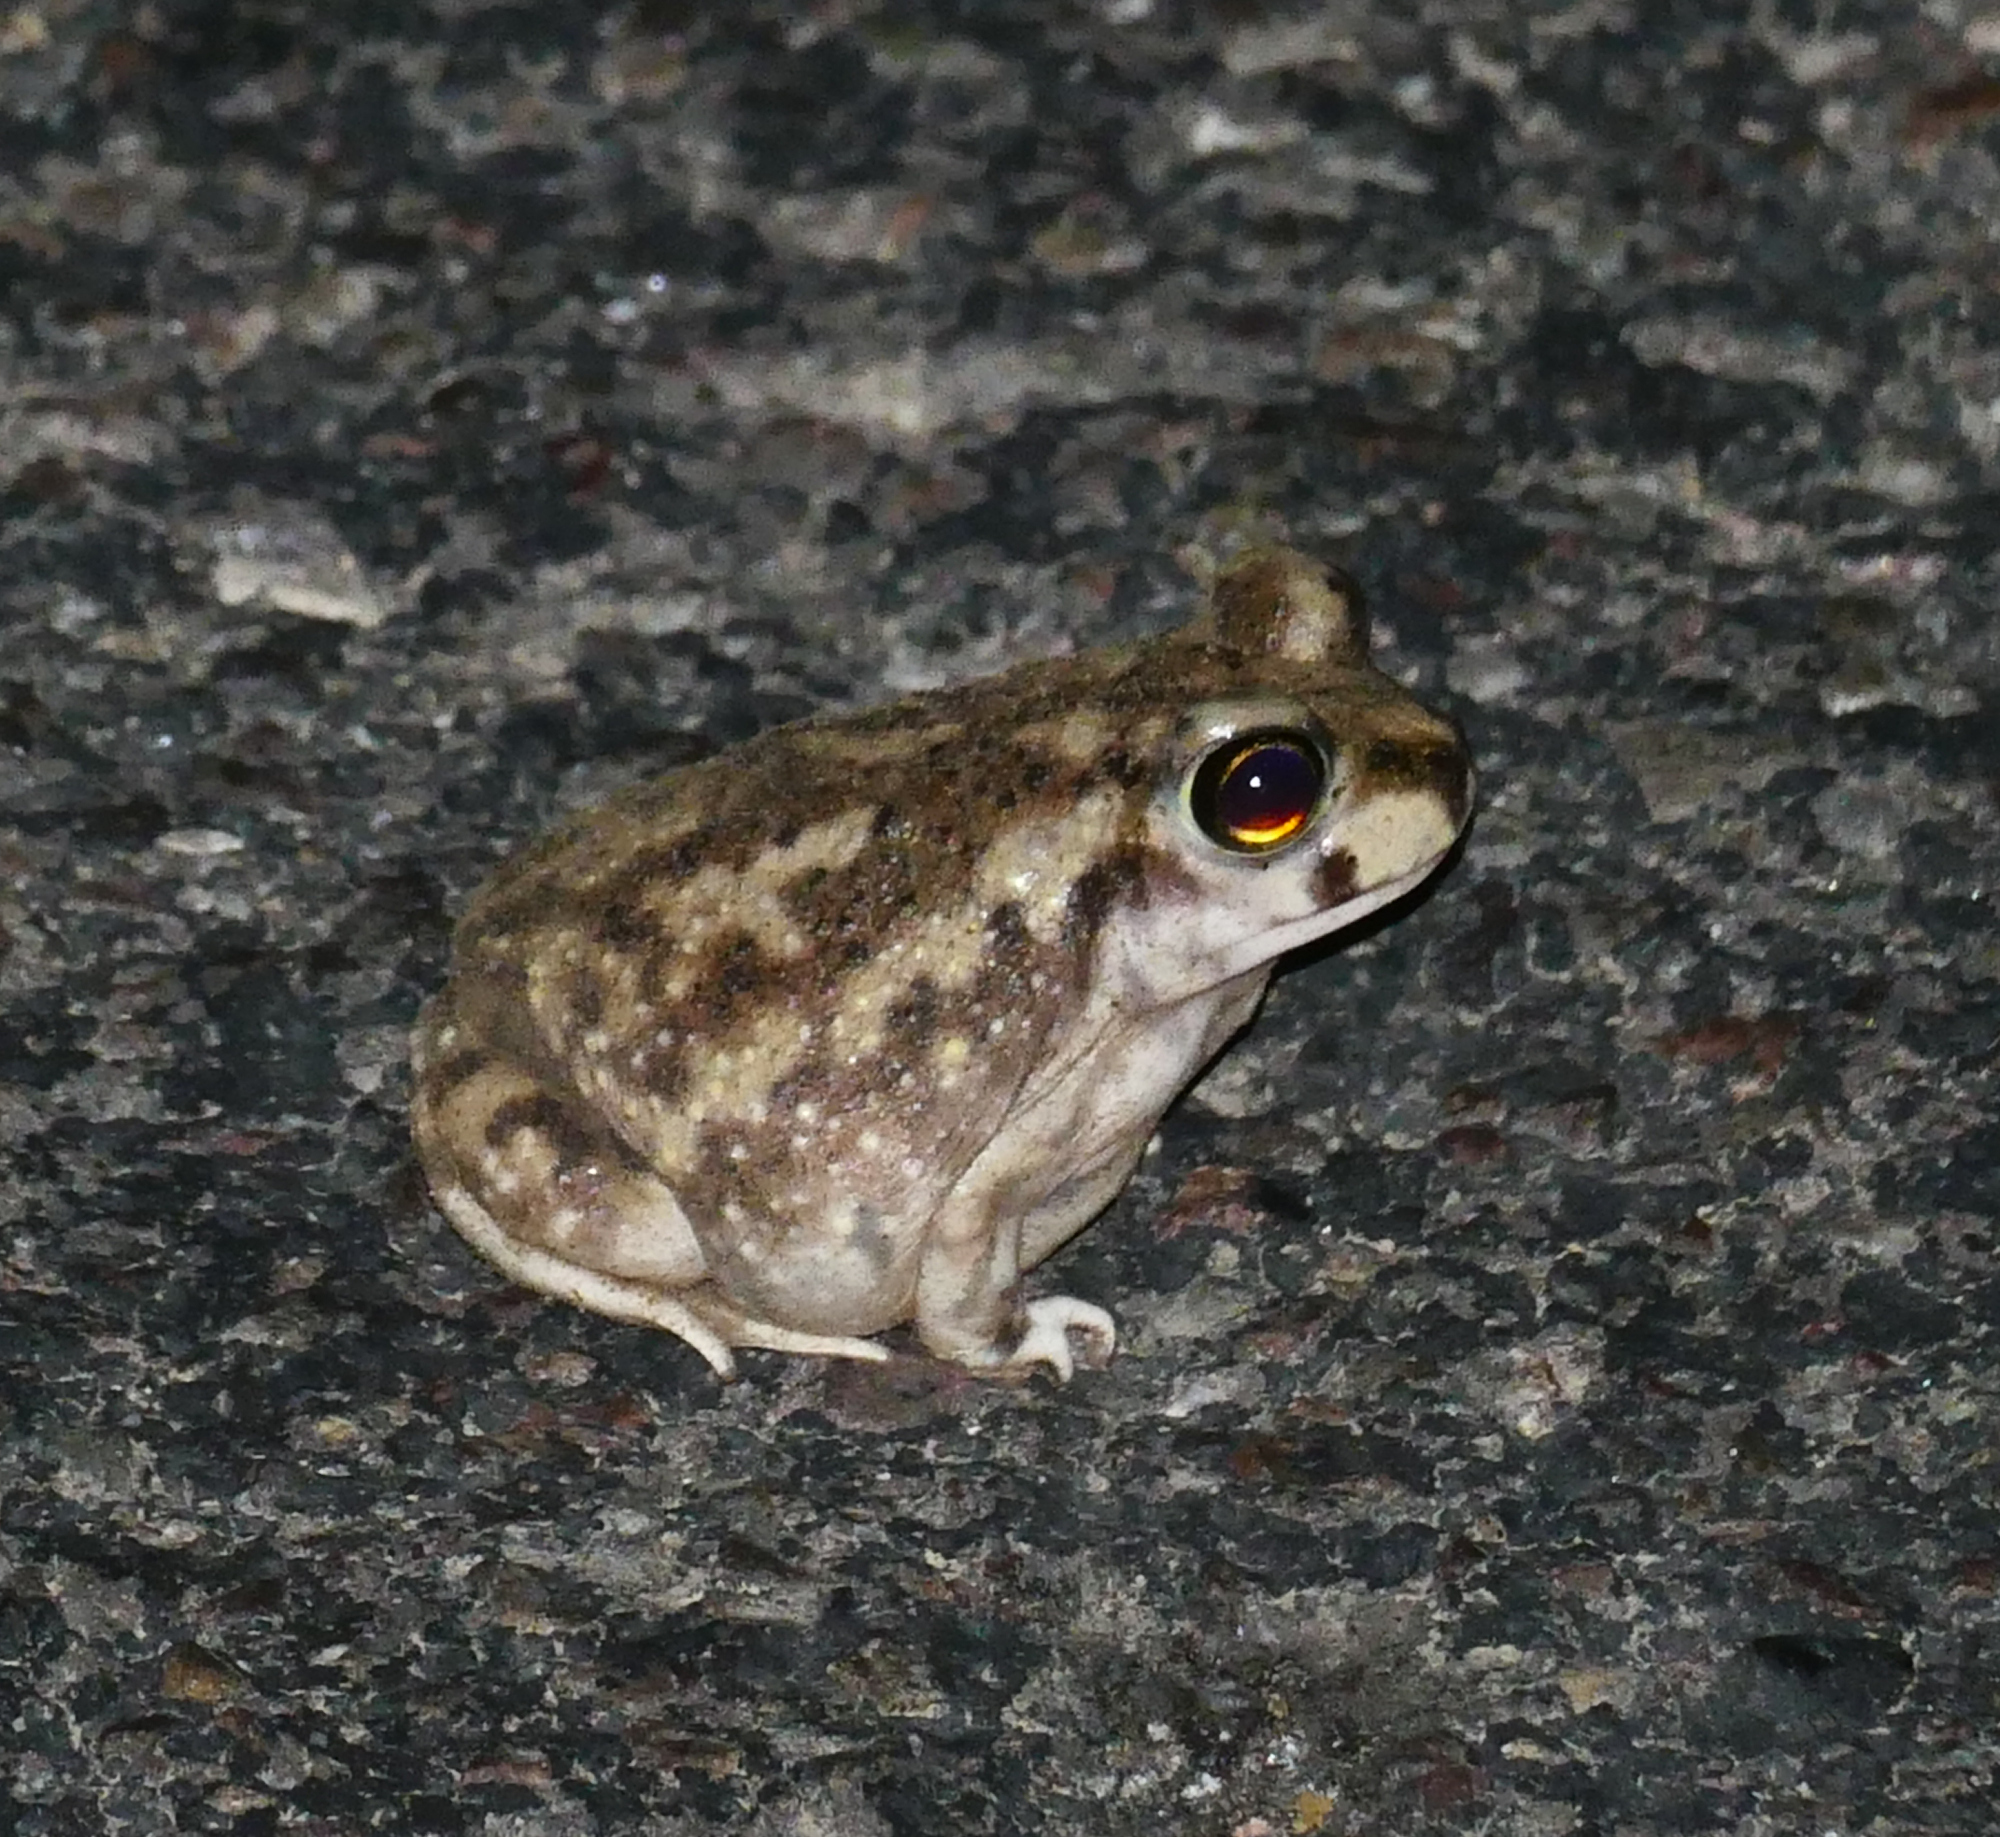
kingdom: Animalia
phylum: Chordata
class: Amphibia
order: Anura
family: Scaphiopodidae
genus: Scaphiopus
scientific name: Scaphiopus couchii
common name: Couch's spadefoot toad
